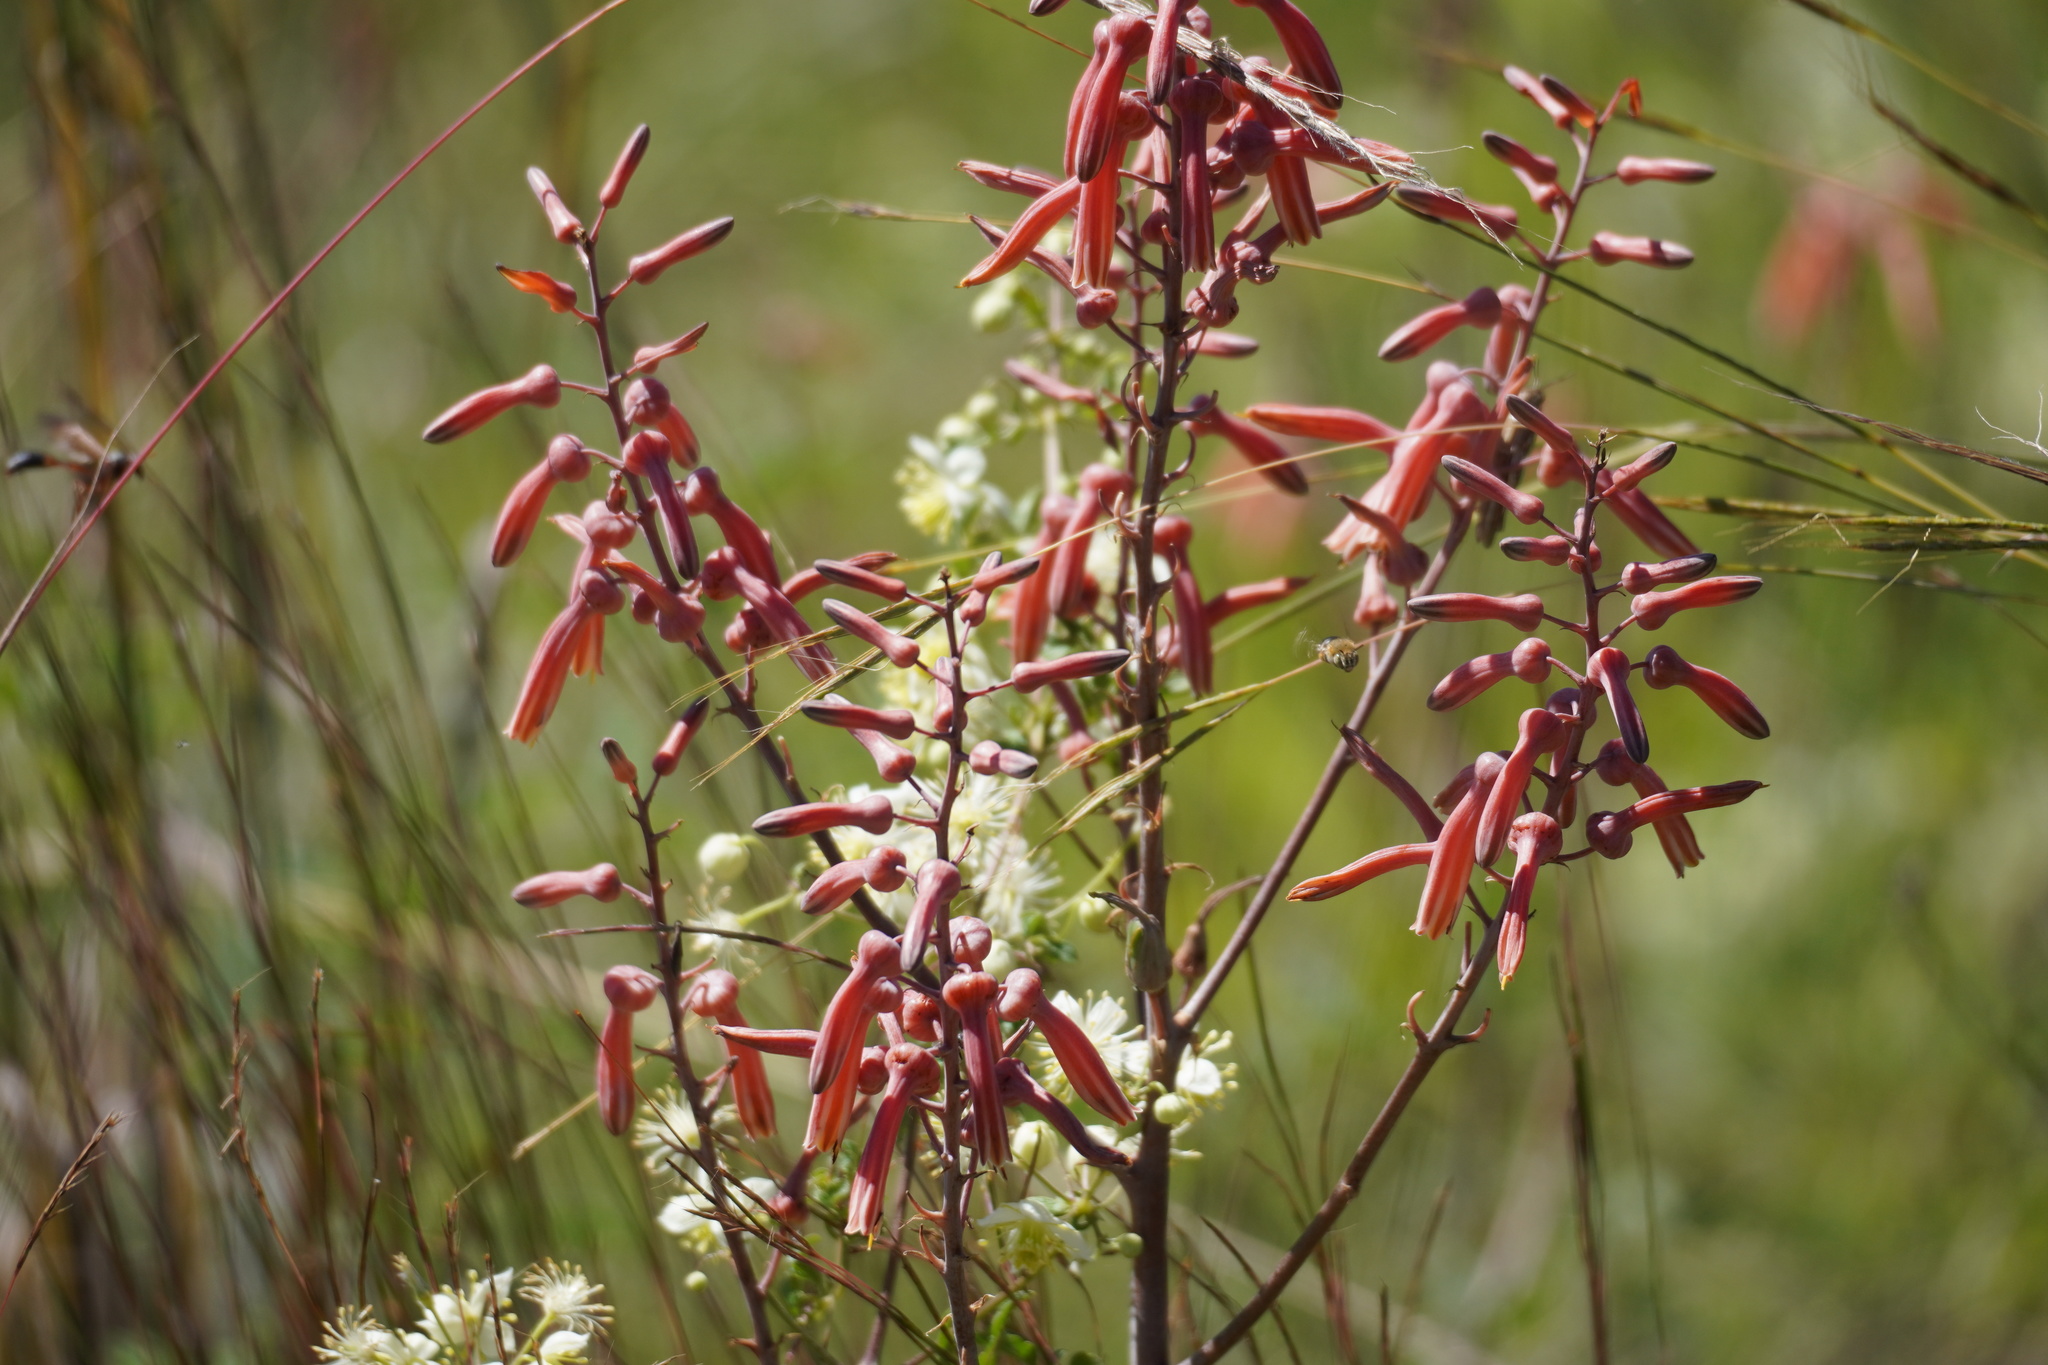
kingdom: Plantae
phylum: Tracheophyta
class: Liliopsida
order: Asparagales
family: Asphodelaceae
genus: Aloe
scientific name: Aloe transvaalensis
